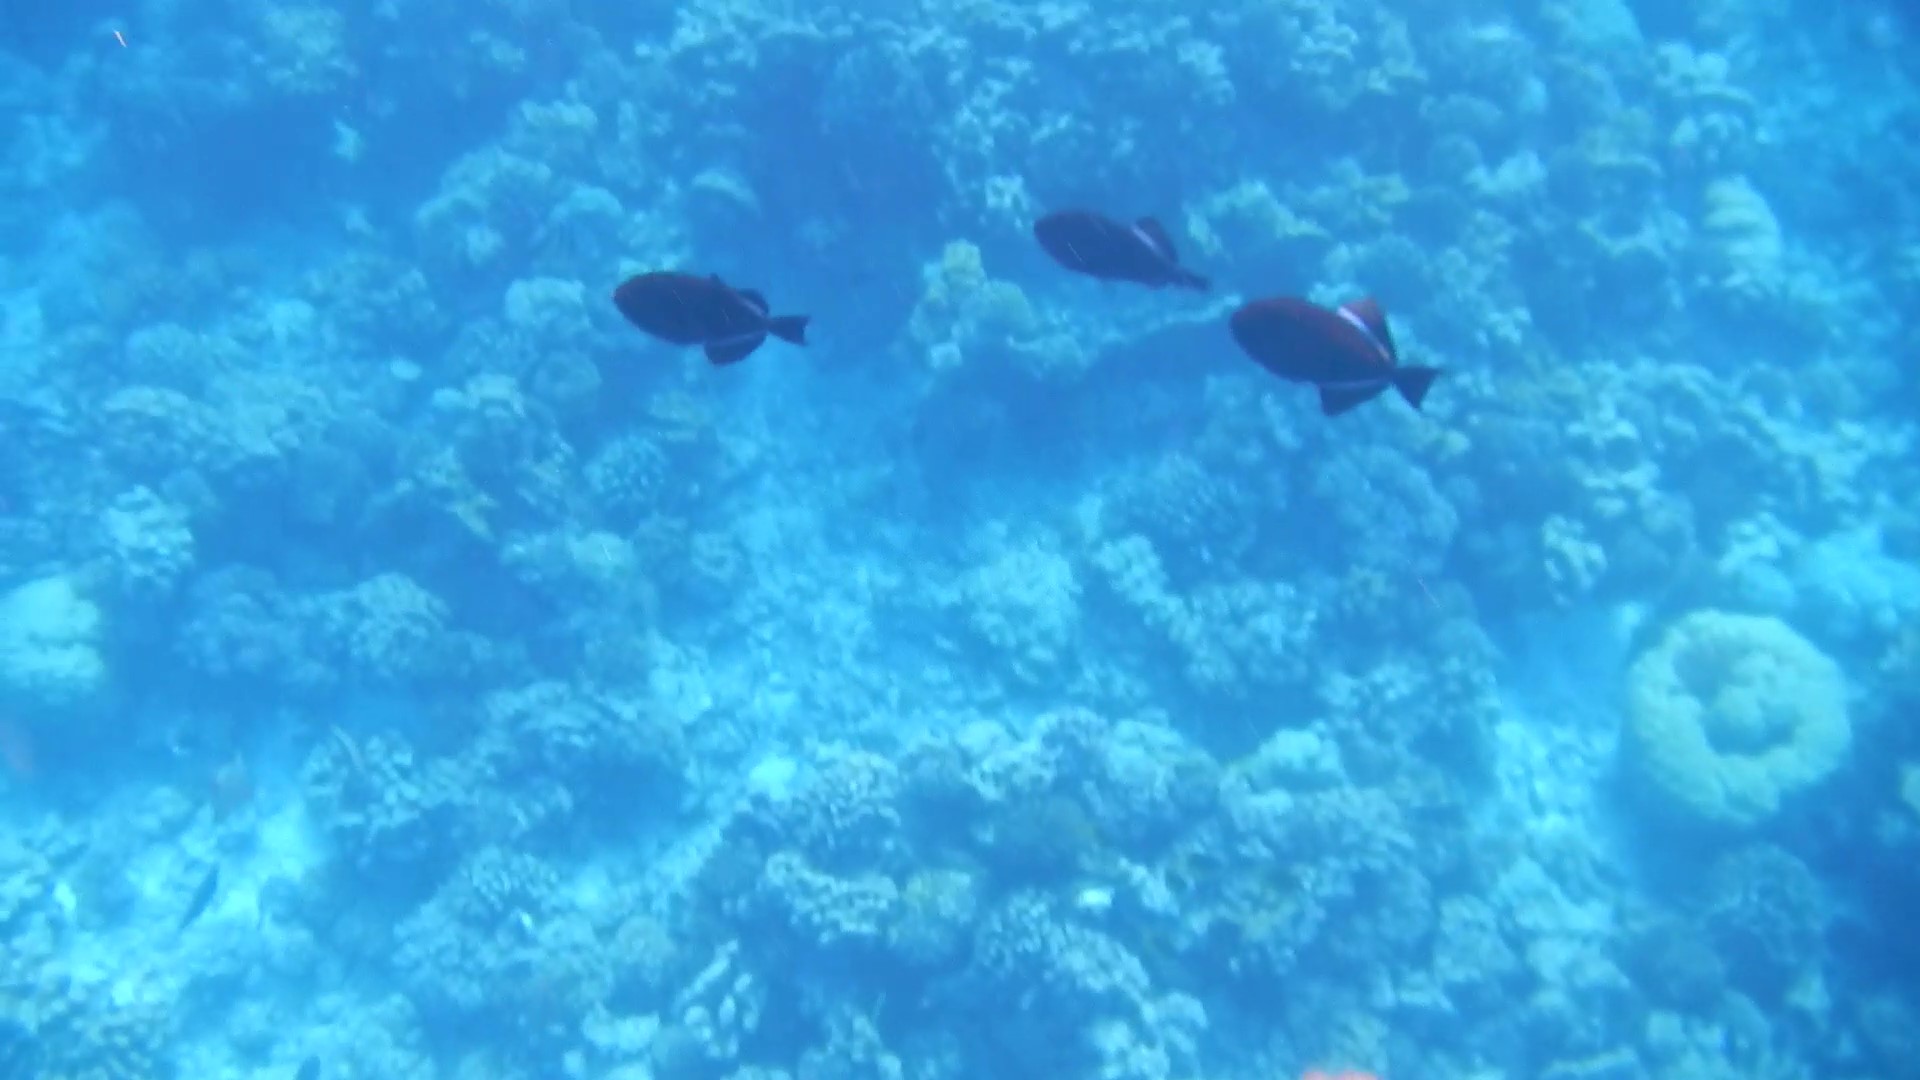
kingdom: Animalia
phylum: Chordata
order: Tetraodontiformes
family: Balistidae
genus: Melichthys
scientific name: Melichthys niger
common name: Black durgon
